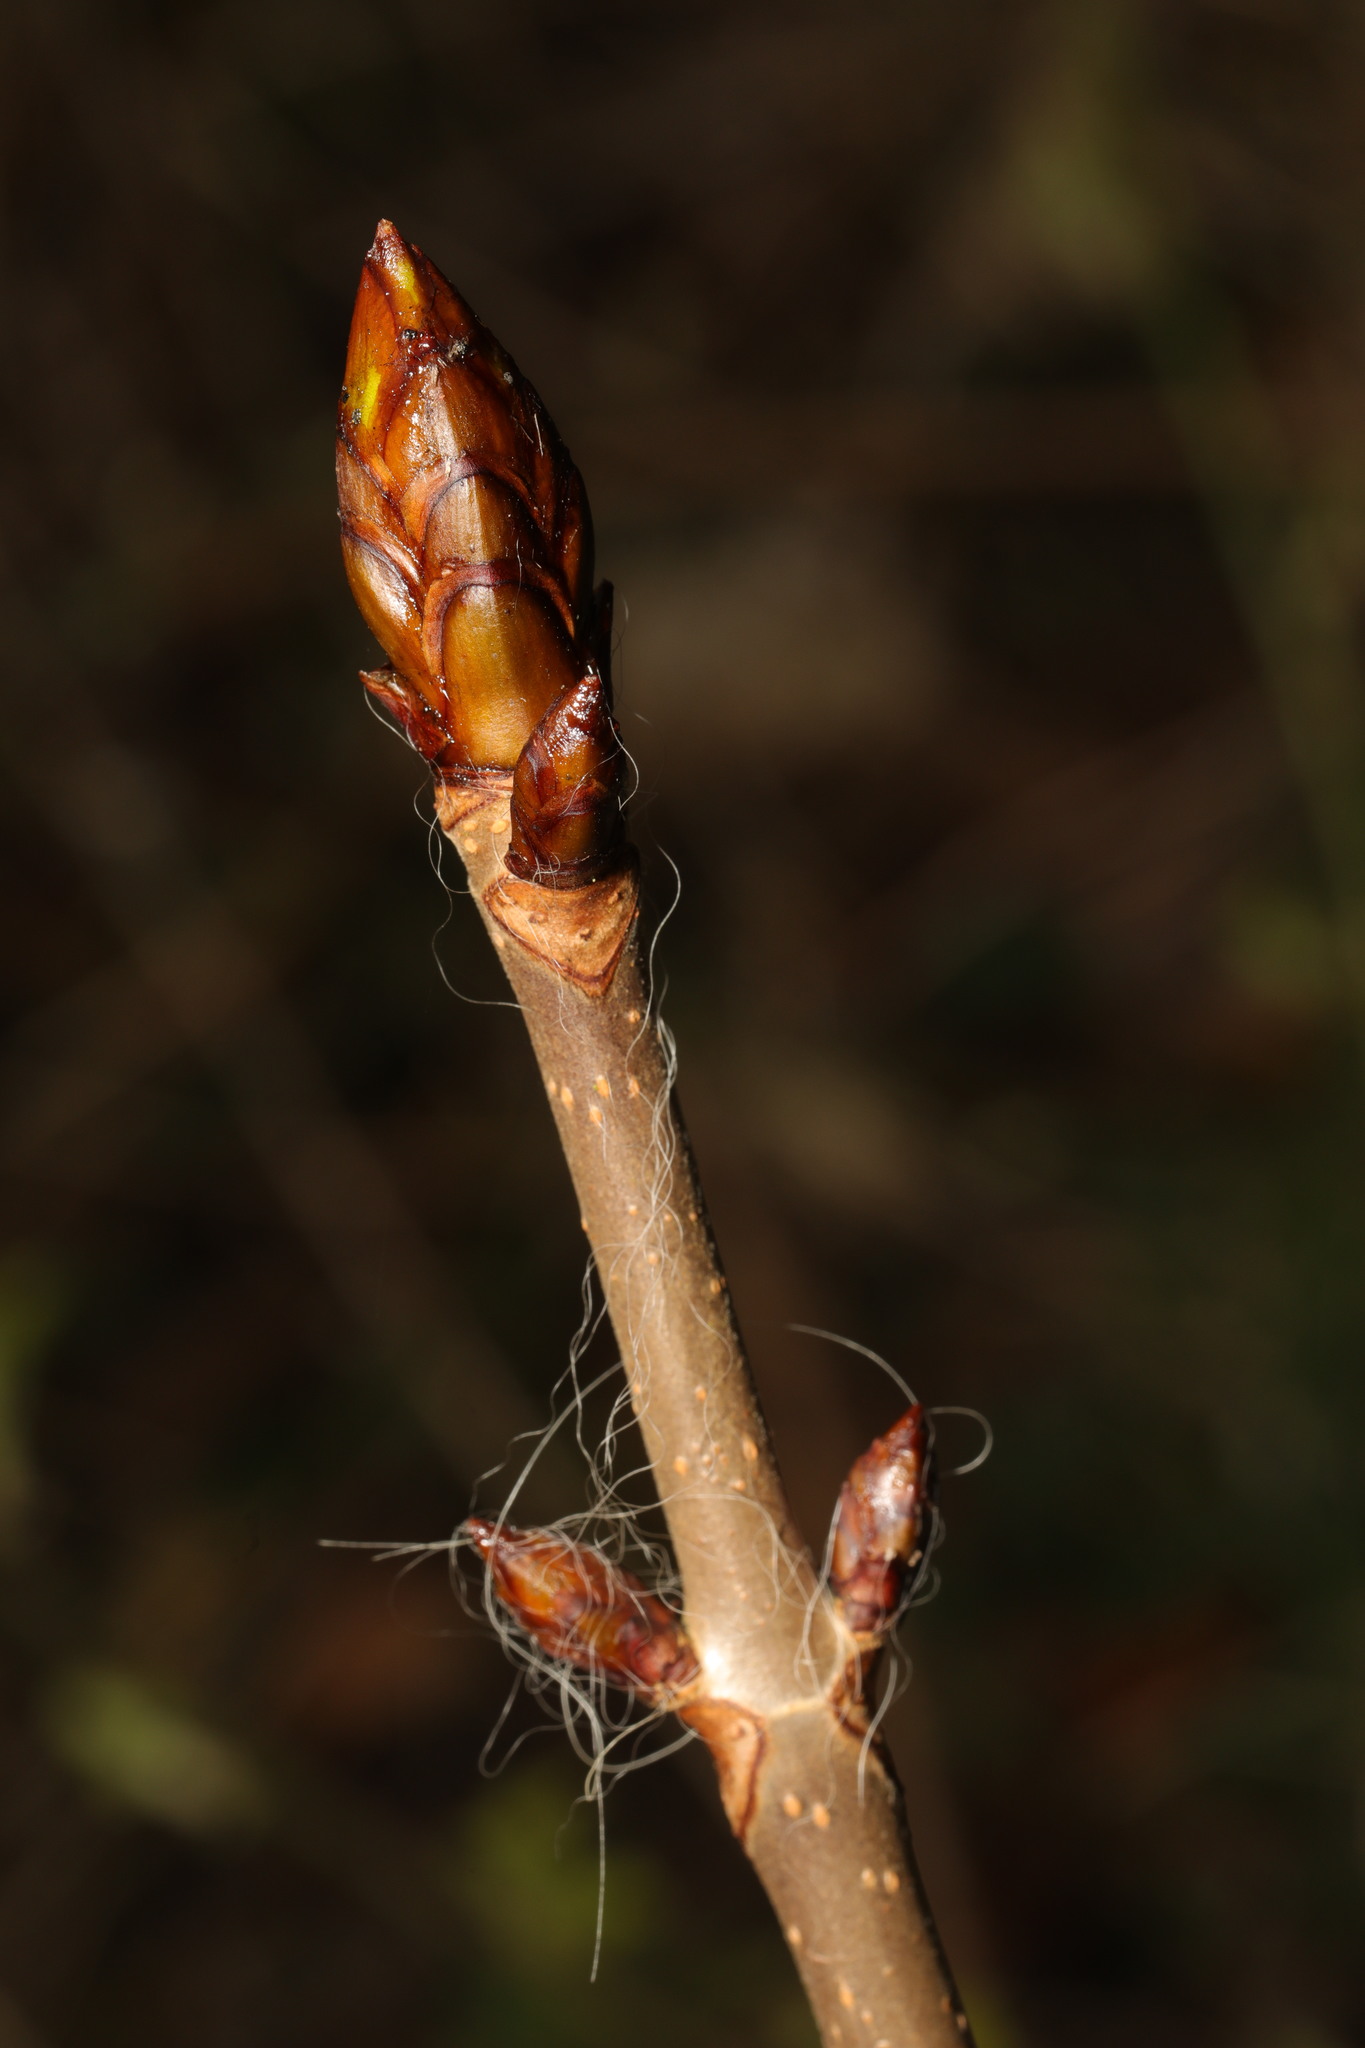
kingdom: Plantae
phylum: Tracheophyta
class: Magnoliopsida
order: Sapindales
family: Sapindaceae
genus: Aesculus
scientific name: Aesculus hippocastanum
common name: Horse-chestnut
